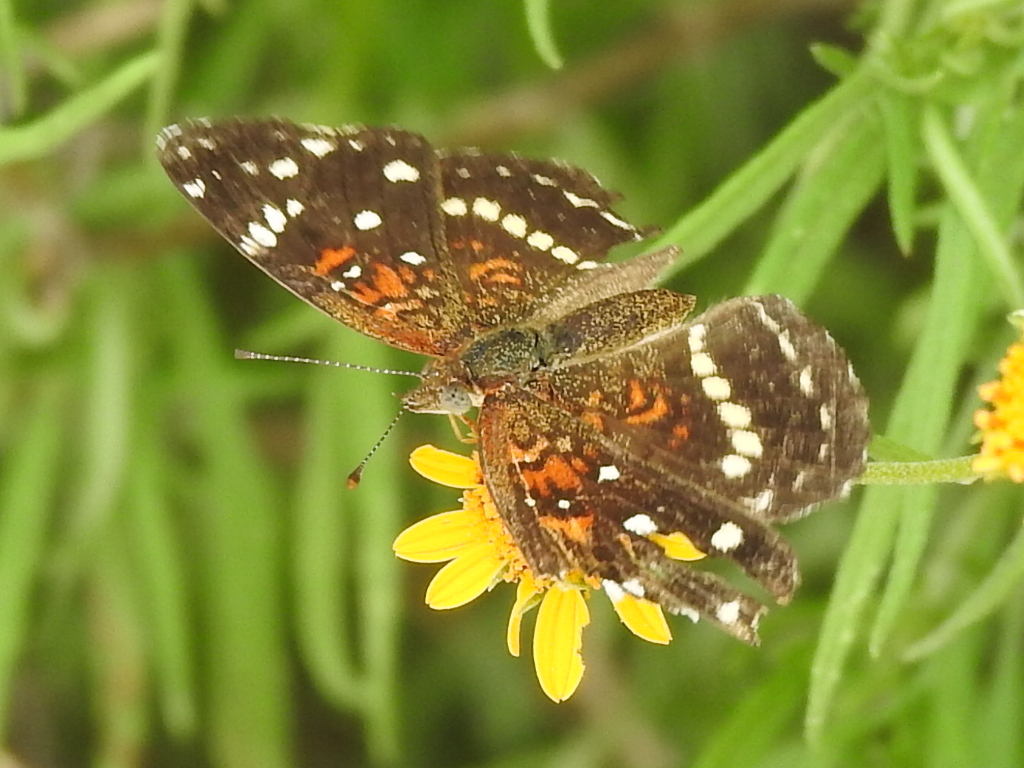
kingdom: Animalia
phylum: Arthropoda
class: Insecta
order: Lepidoptera
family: Nymphalidae
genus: Anthanassa
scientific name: Anthanassa texana
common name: Texan crescent
